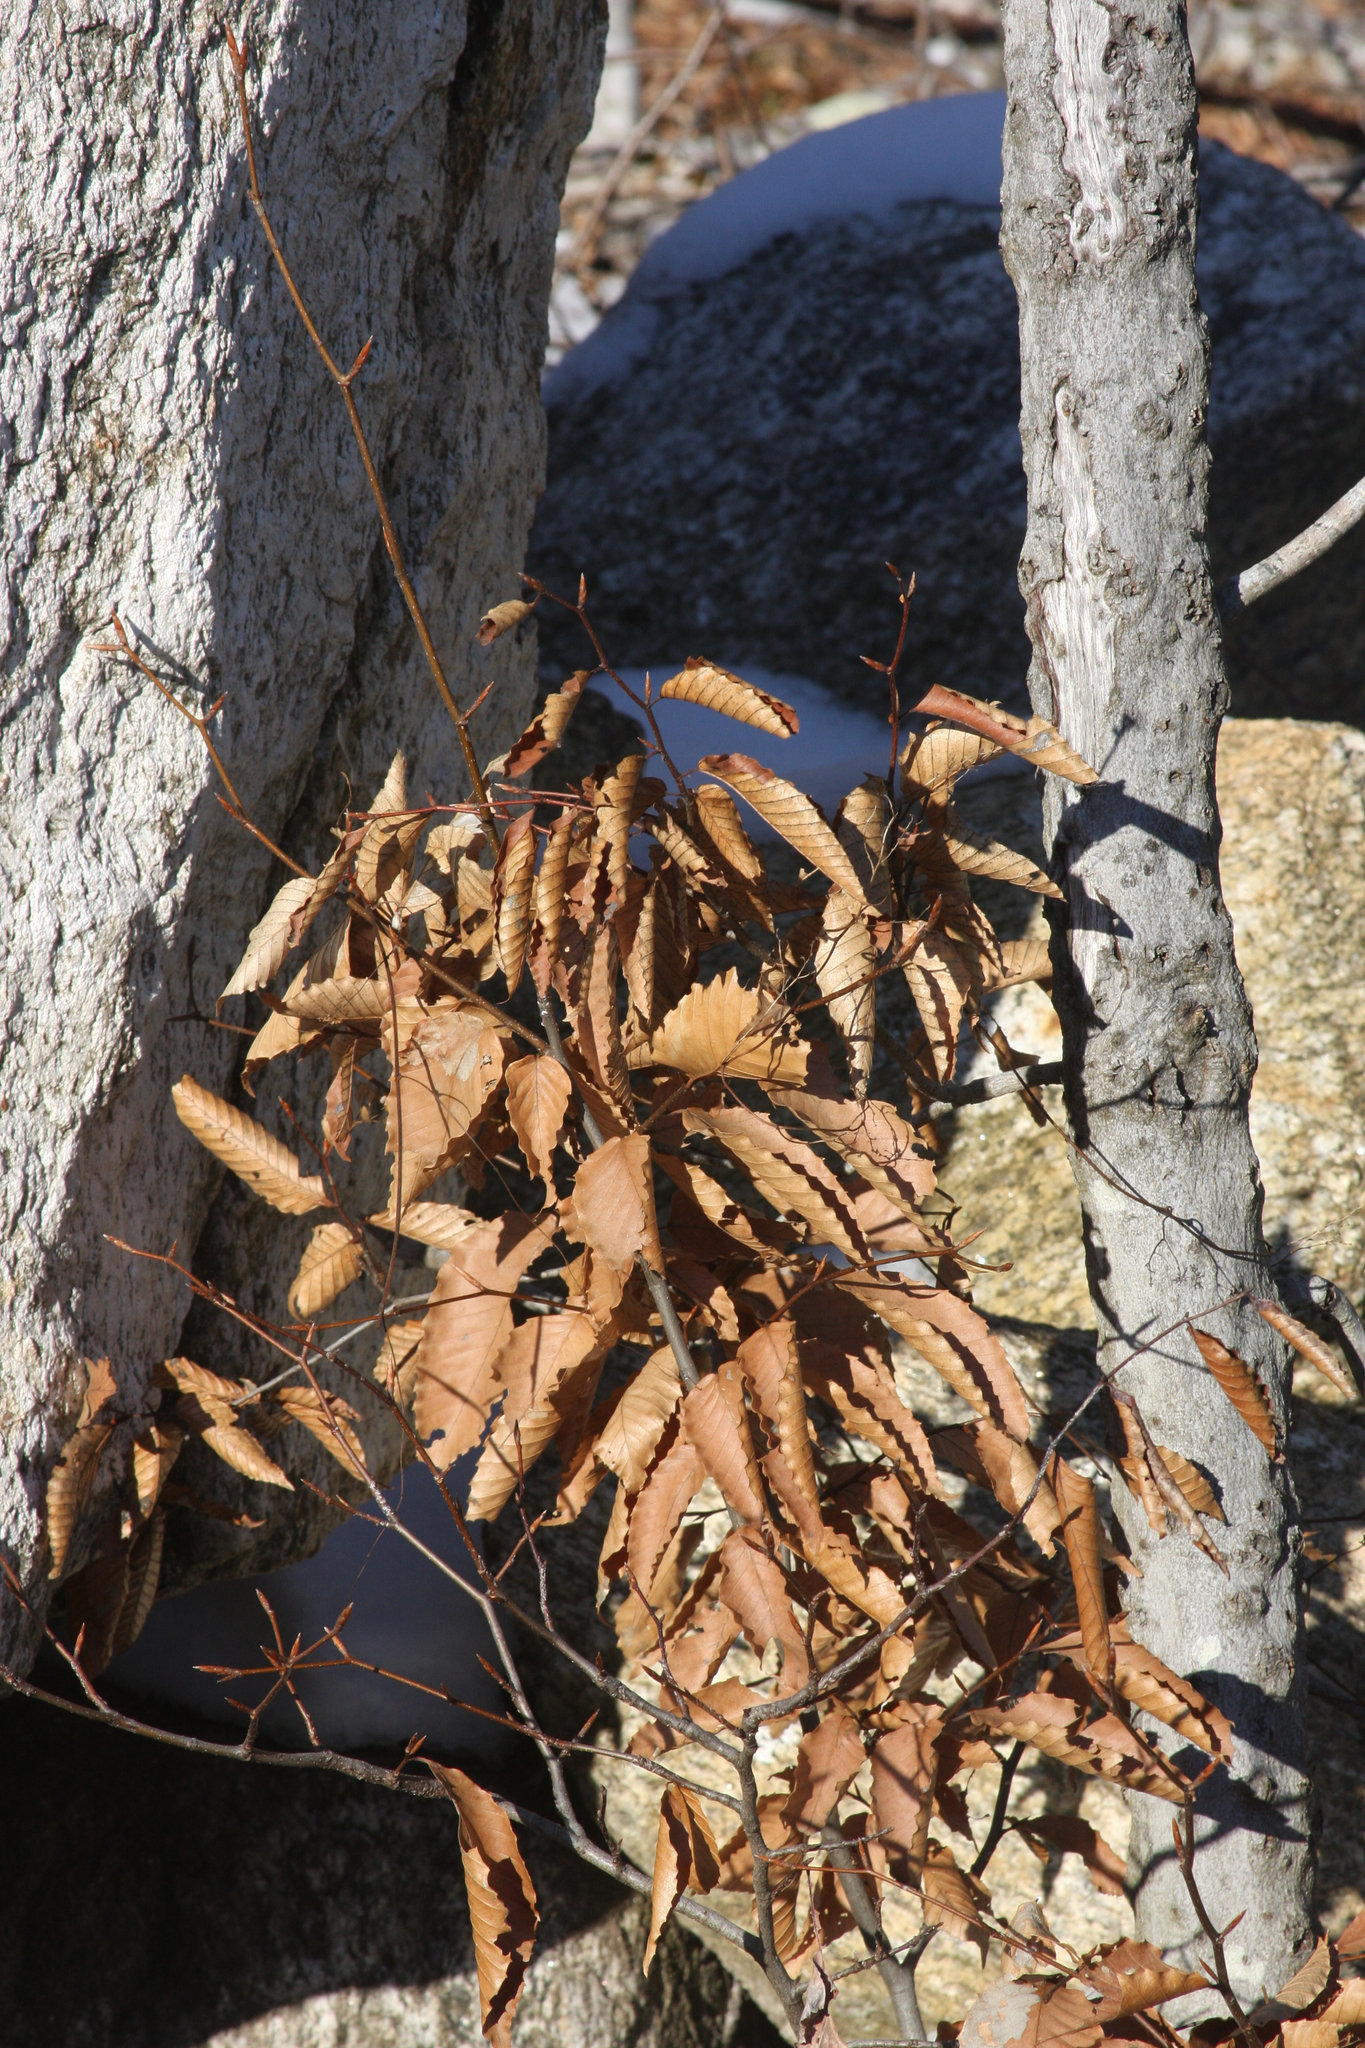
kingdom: Plantae
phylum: Tracheophyta
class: Magnoliopsida
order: Fagales
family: Fagaceae
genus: Fagus
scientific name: Fagus grandifolia
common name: American beech
